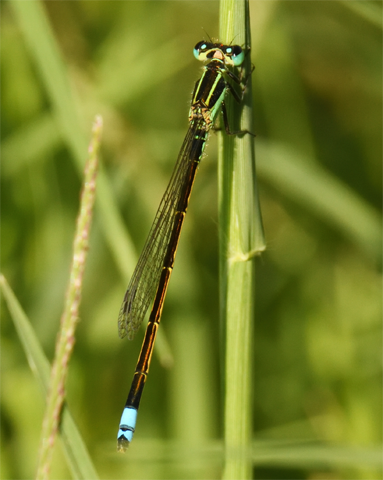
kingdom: Animalia
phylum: Arthropoda
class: Insecta
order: Odonata
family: Coenagrionidae
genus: Ischnura
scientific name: Ischnura ramburii
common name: Rambur's forktail
